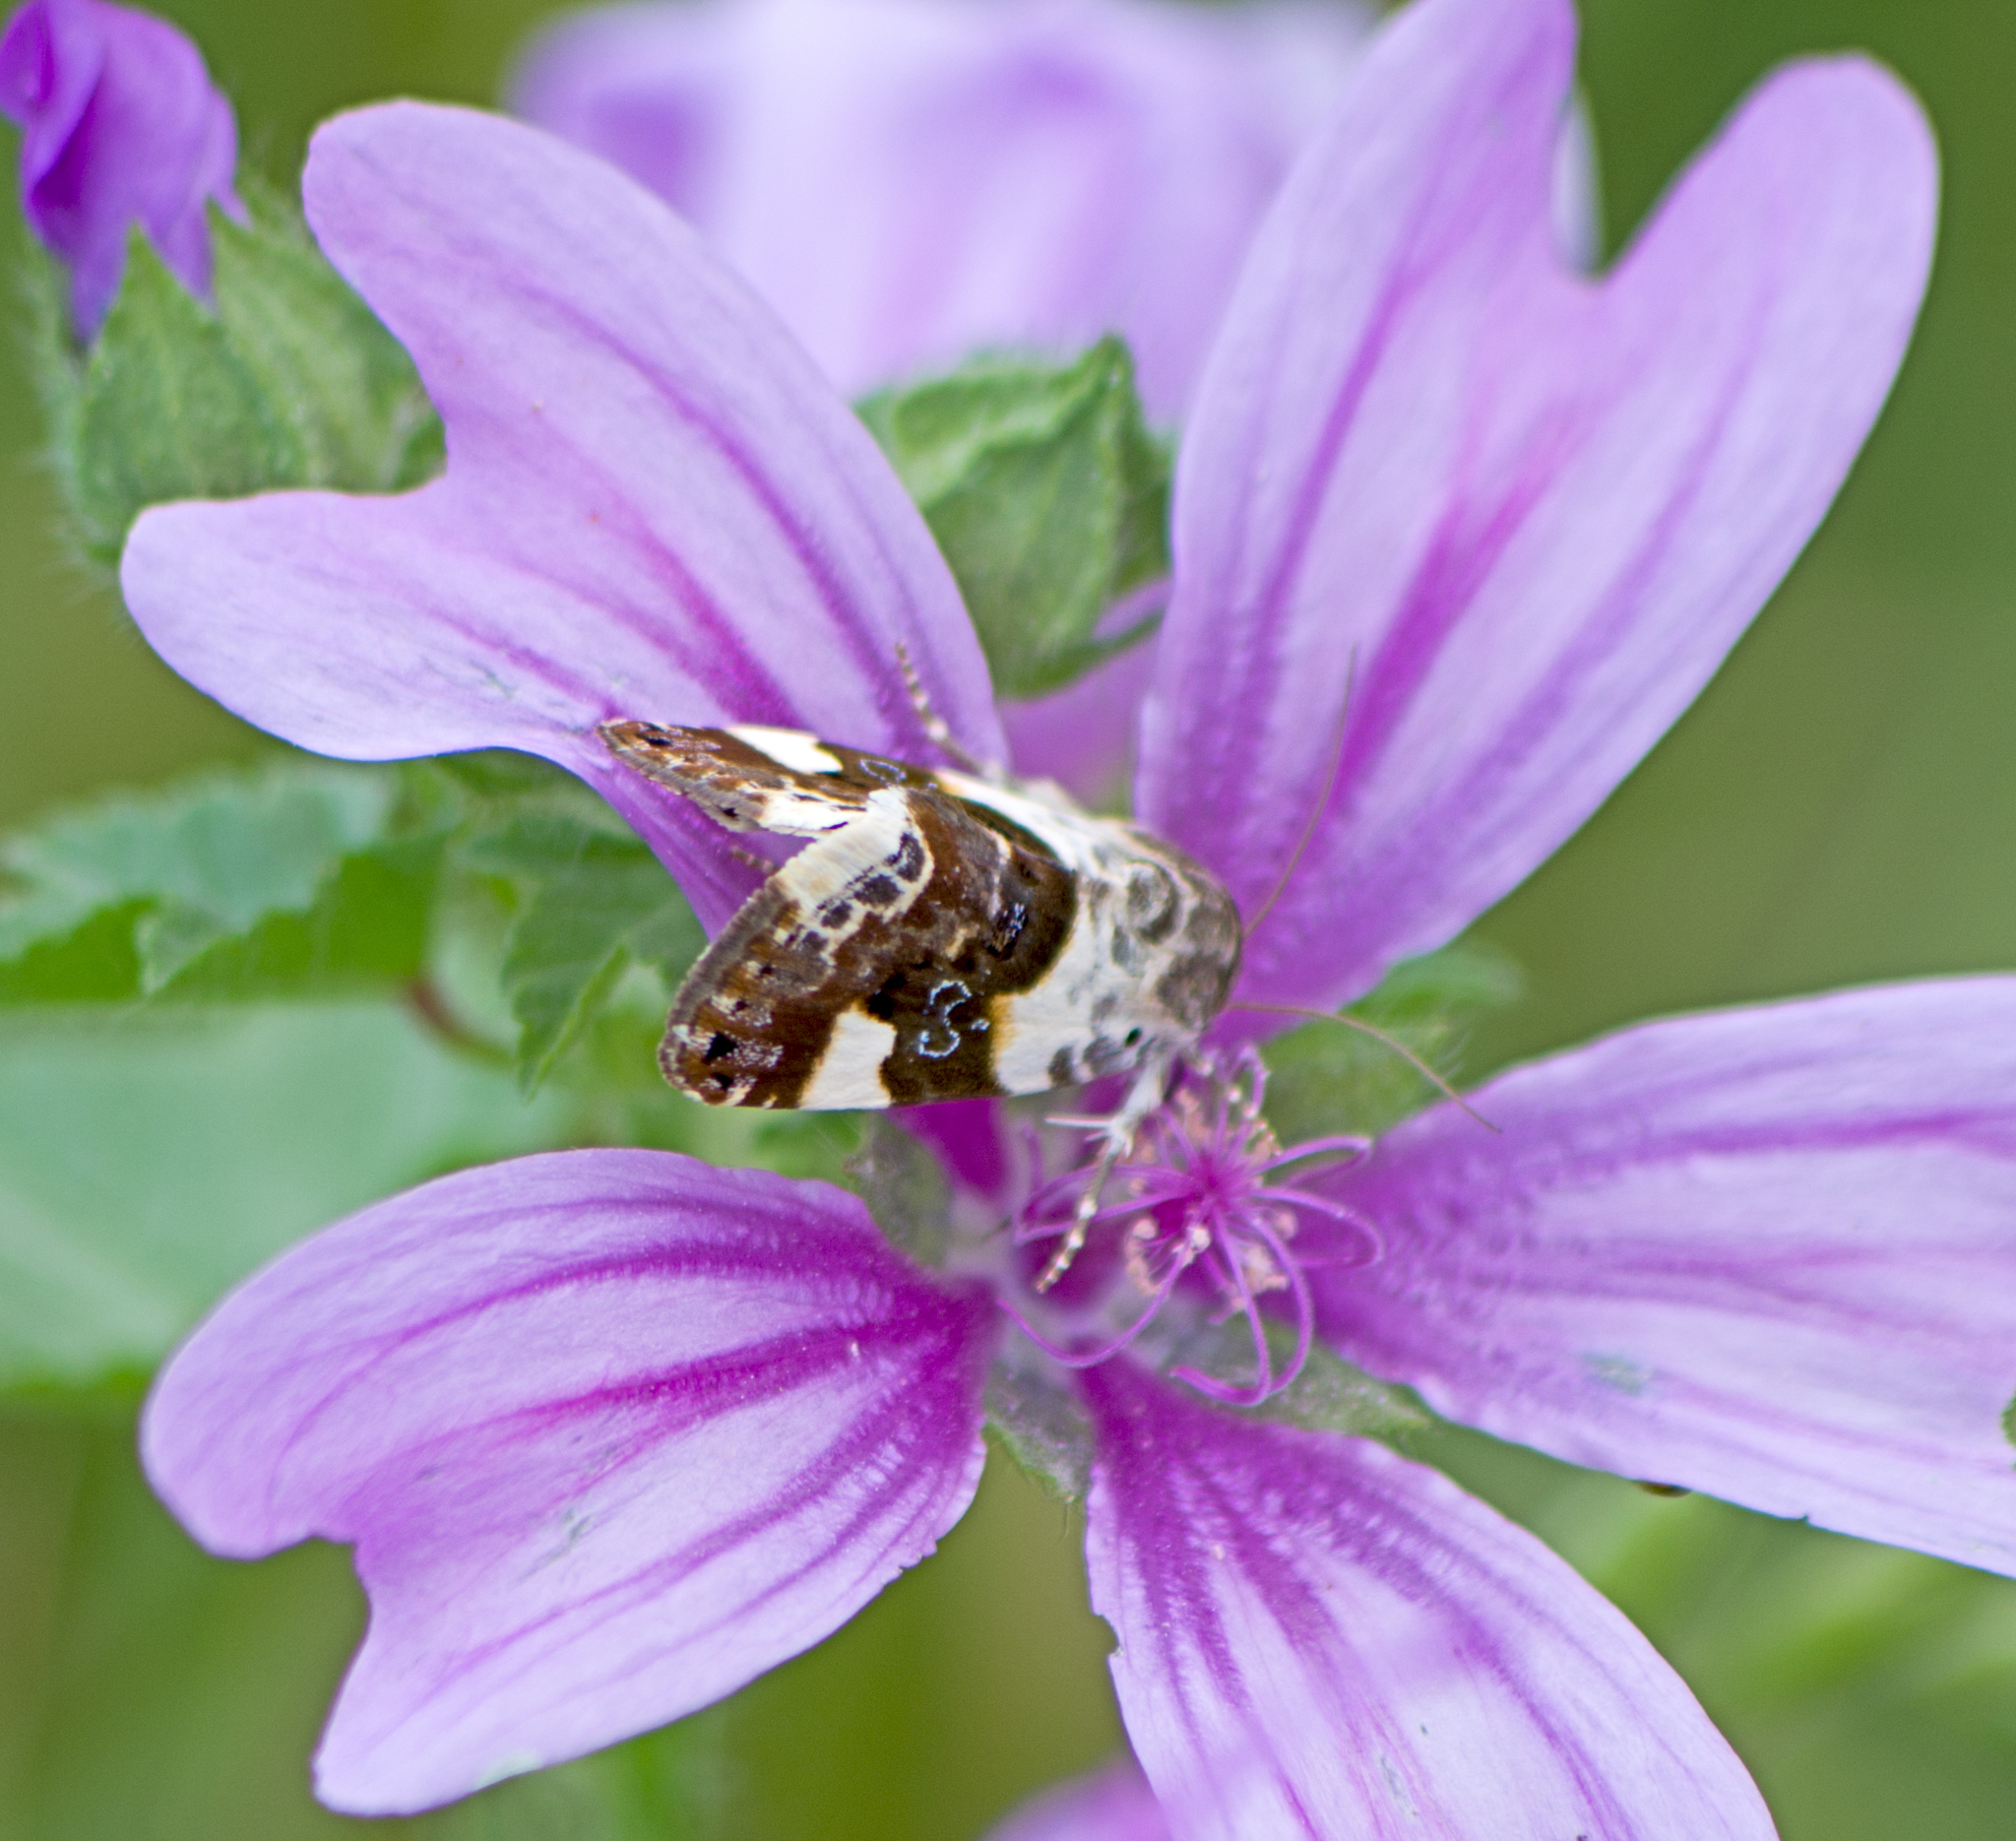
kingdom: Animalia
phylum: Arthropoda
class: Insecta
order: Lepidoptera
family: Noctuidae
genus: Acontia
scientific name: Acontia lucida
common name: Pale shoulder
